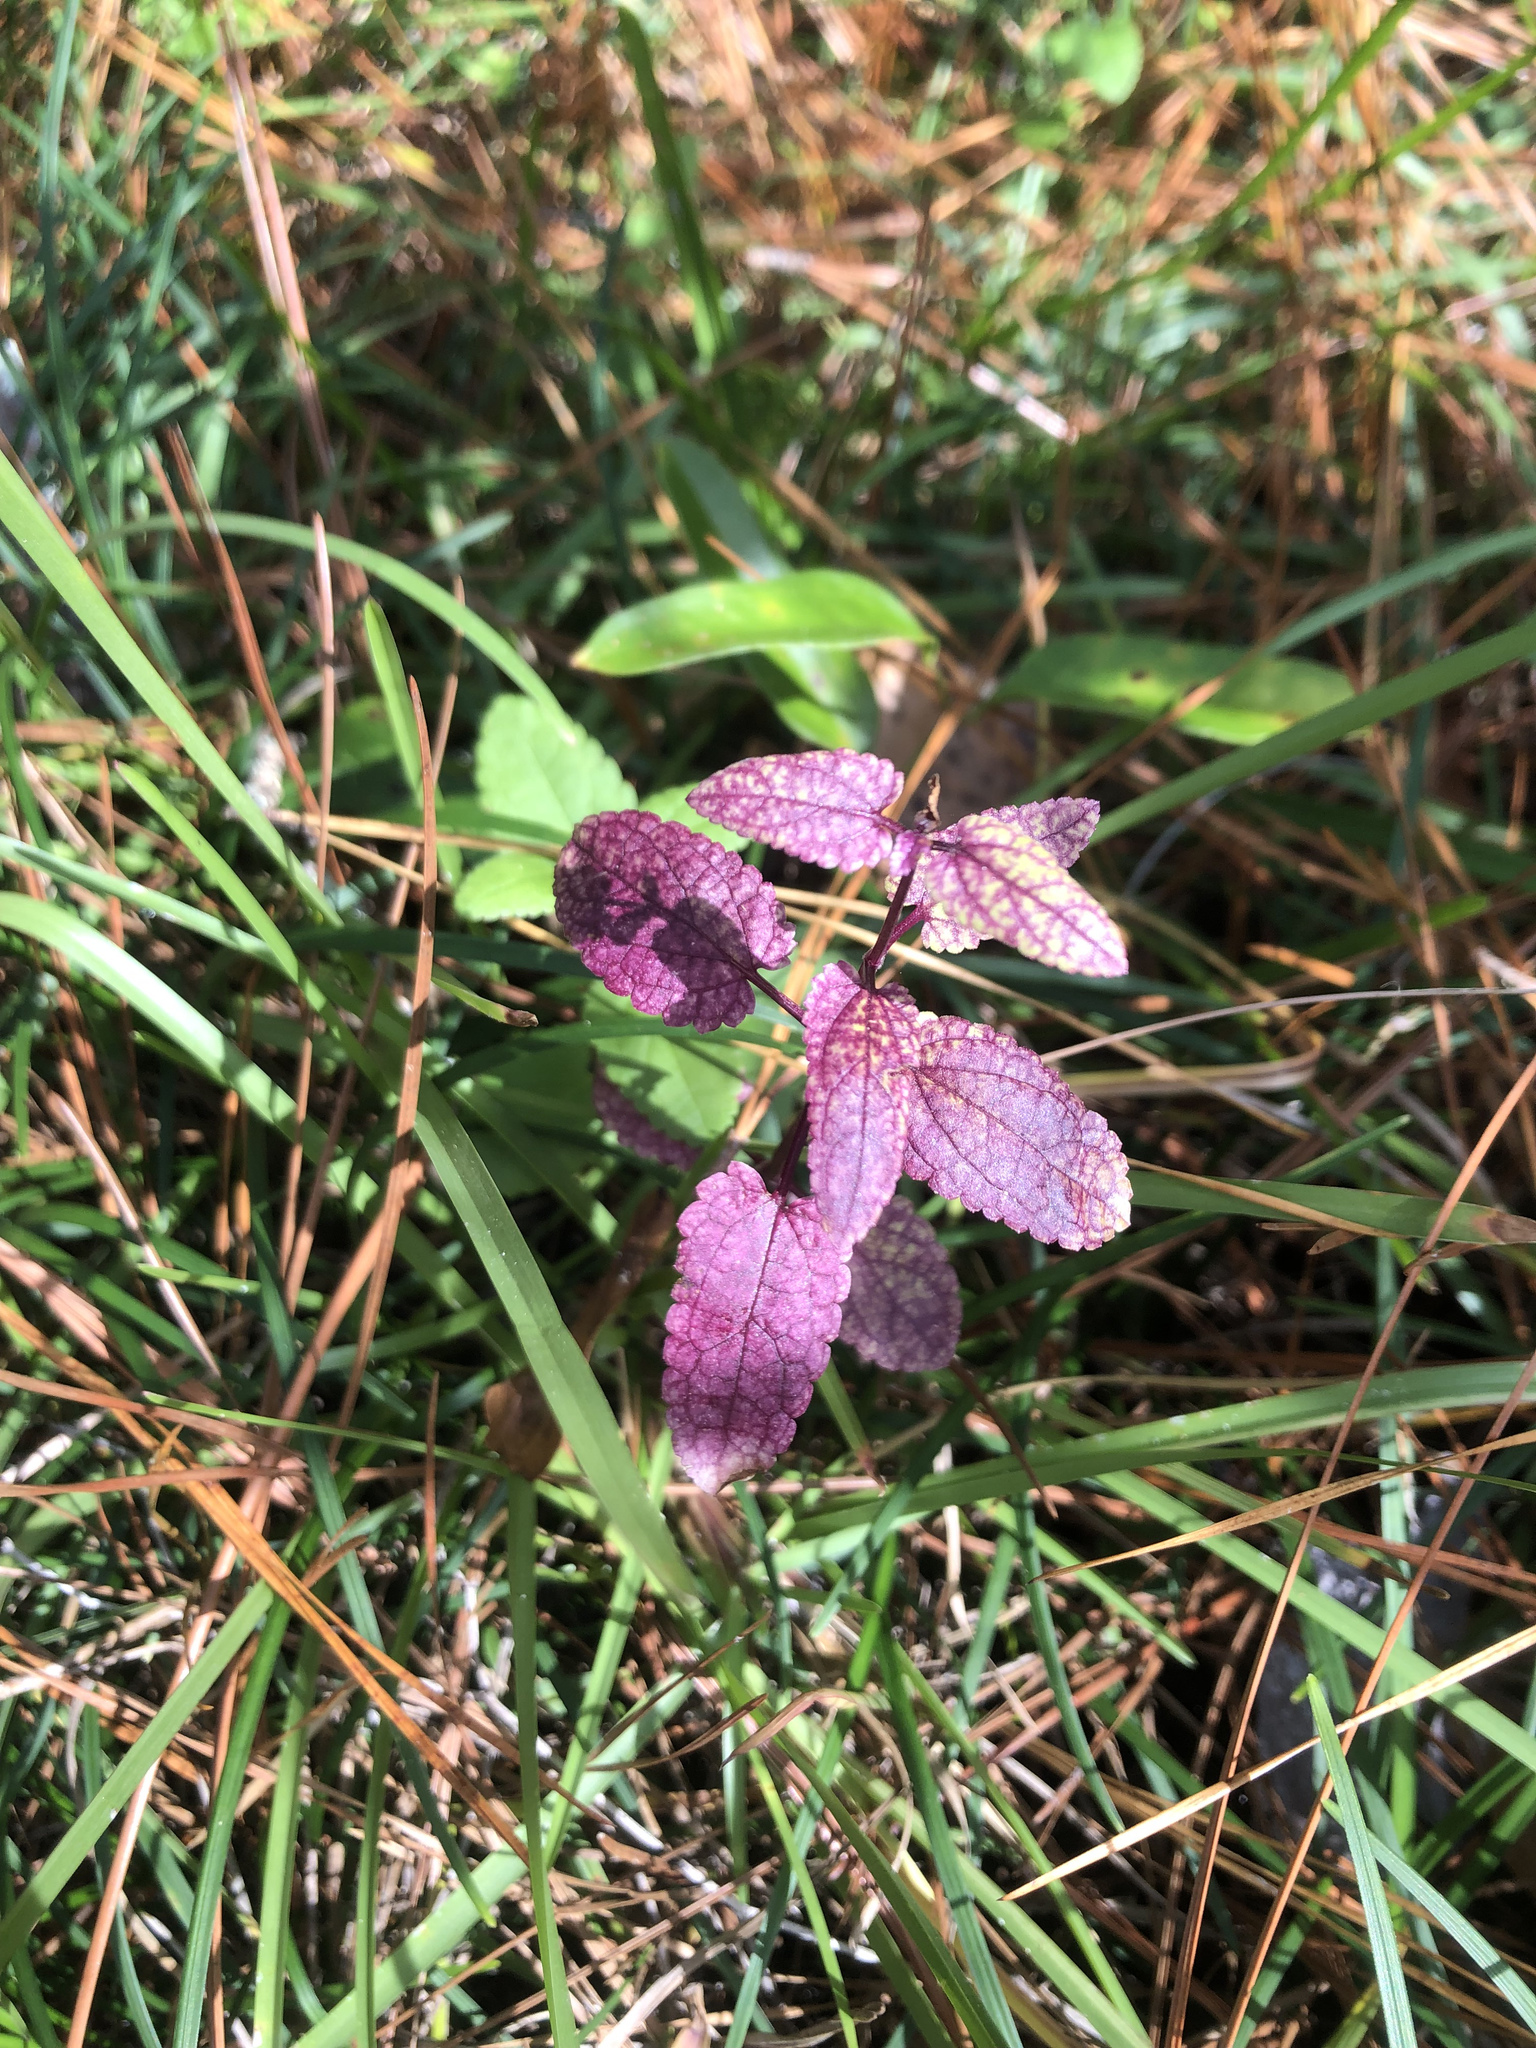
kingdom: Plantae
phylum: Tracheophyta
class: Magnoliopsida
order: Lamiales
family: Lamiaceae
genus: Stachys
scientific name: Stachys floridana
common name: Florida betony
